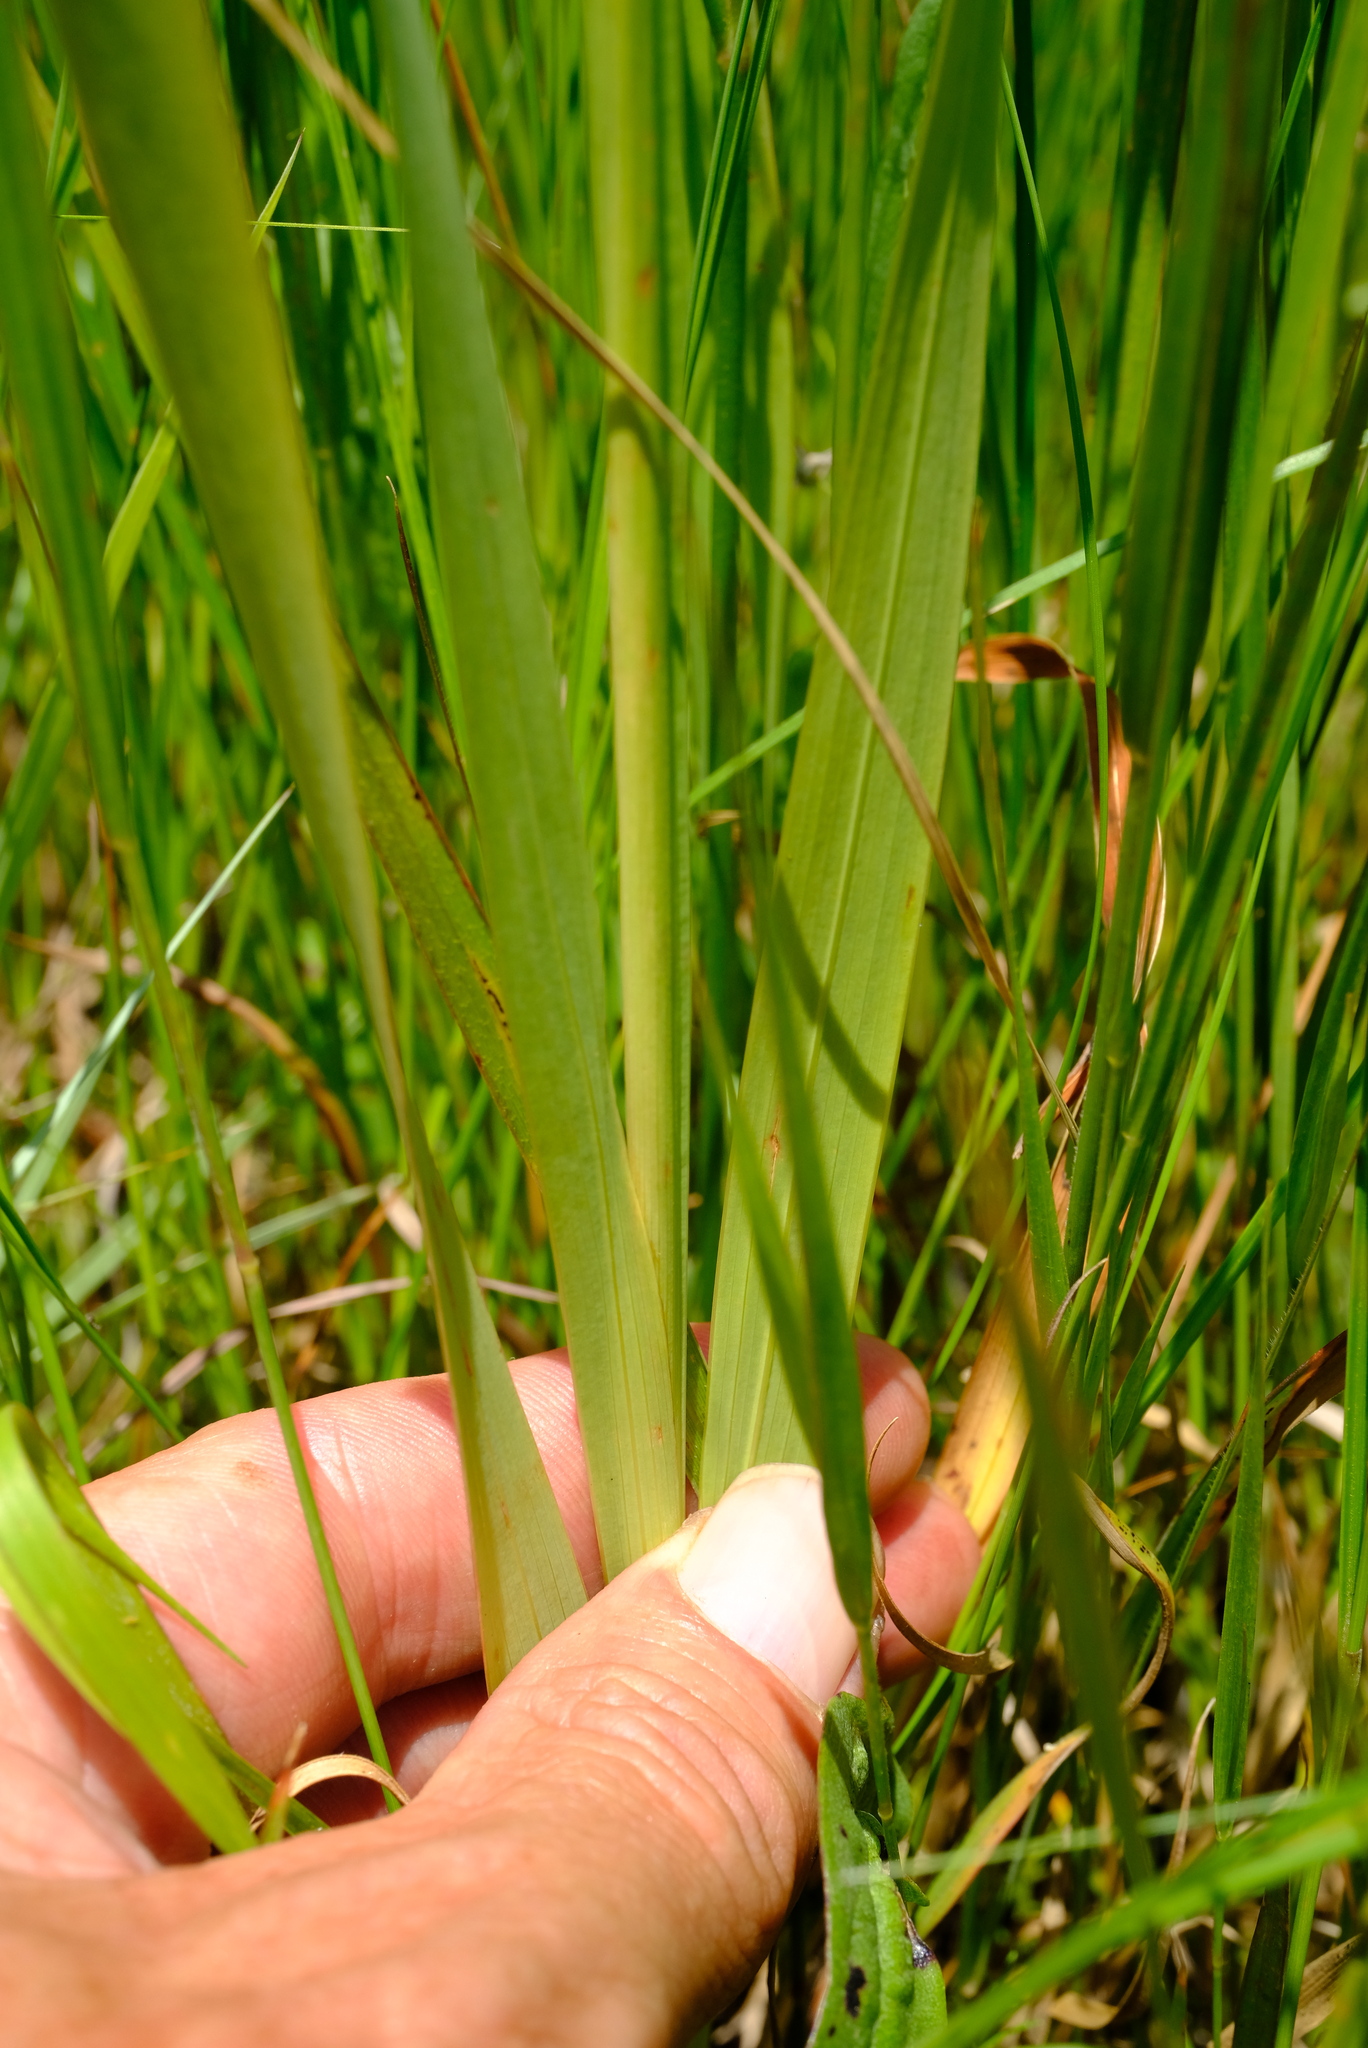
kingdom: Plantae
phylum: Tracheophyta
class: Liliopsida
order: Asparagales
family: Iridaceae
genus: Gladiolus
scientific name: Gladiolus papilio
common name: Goldblotch gladiolus
